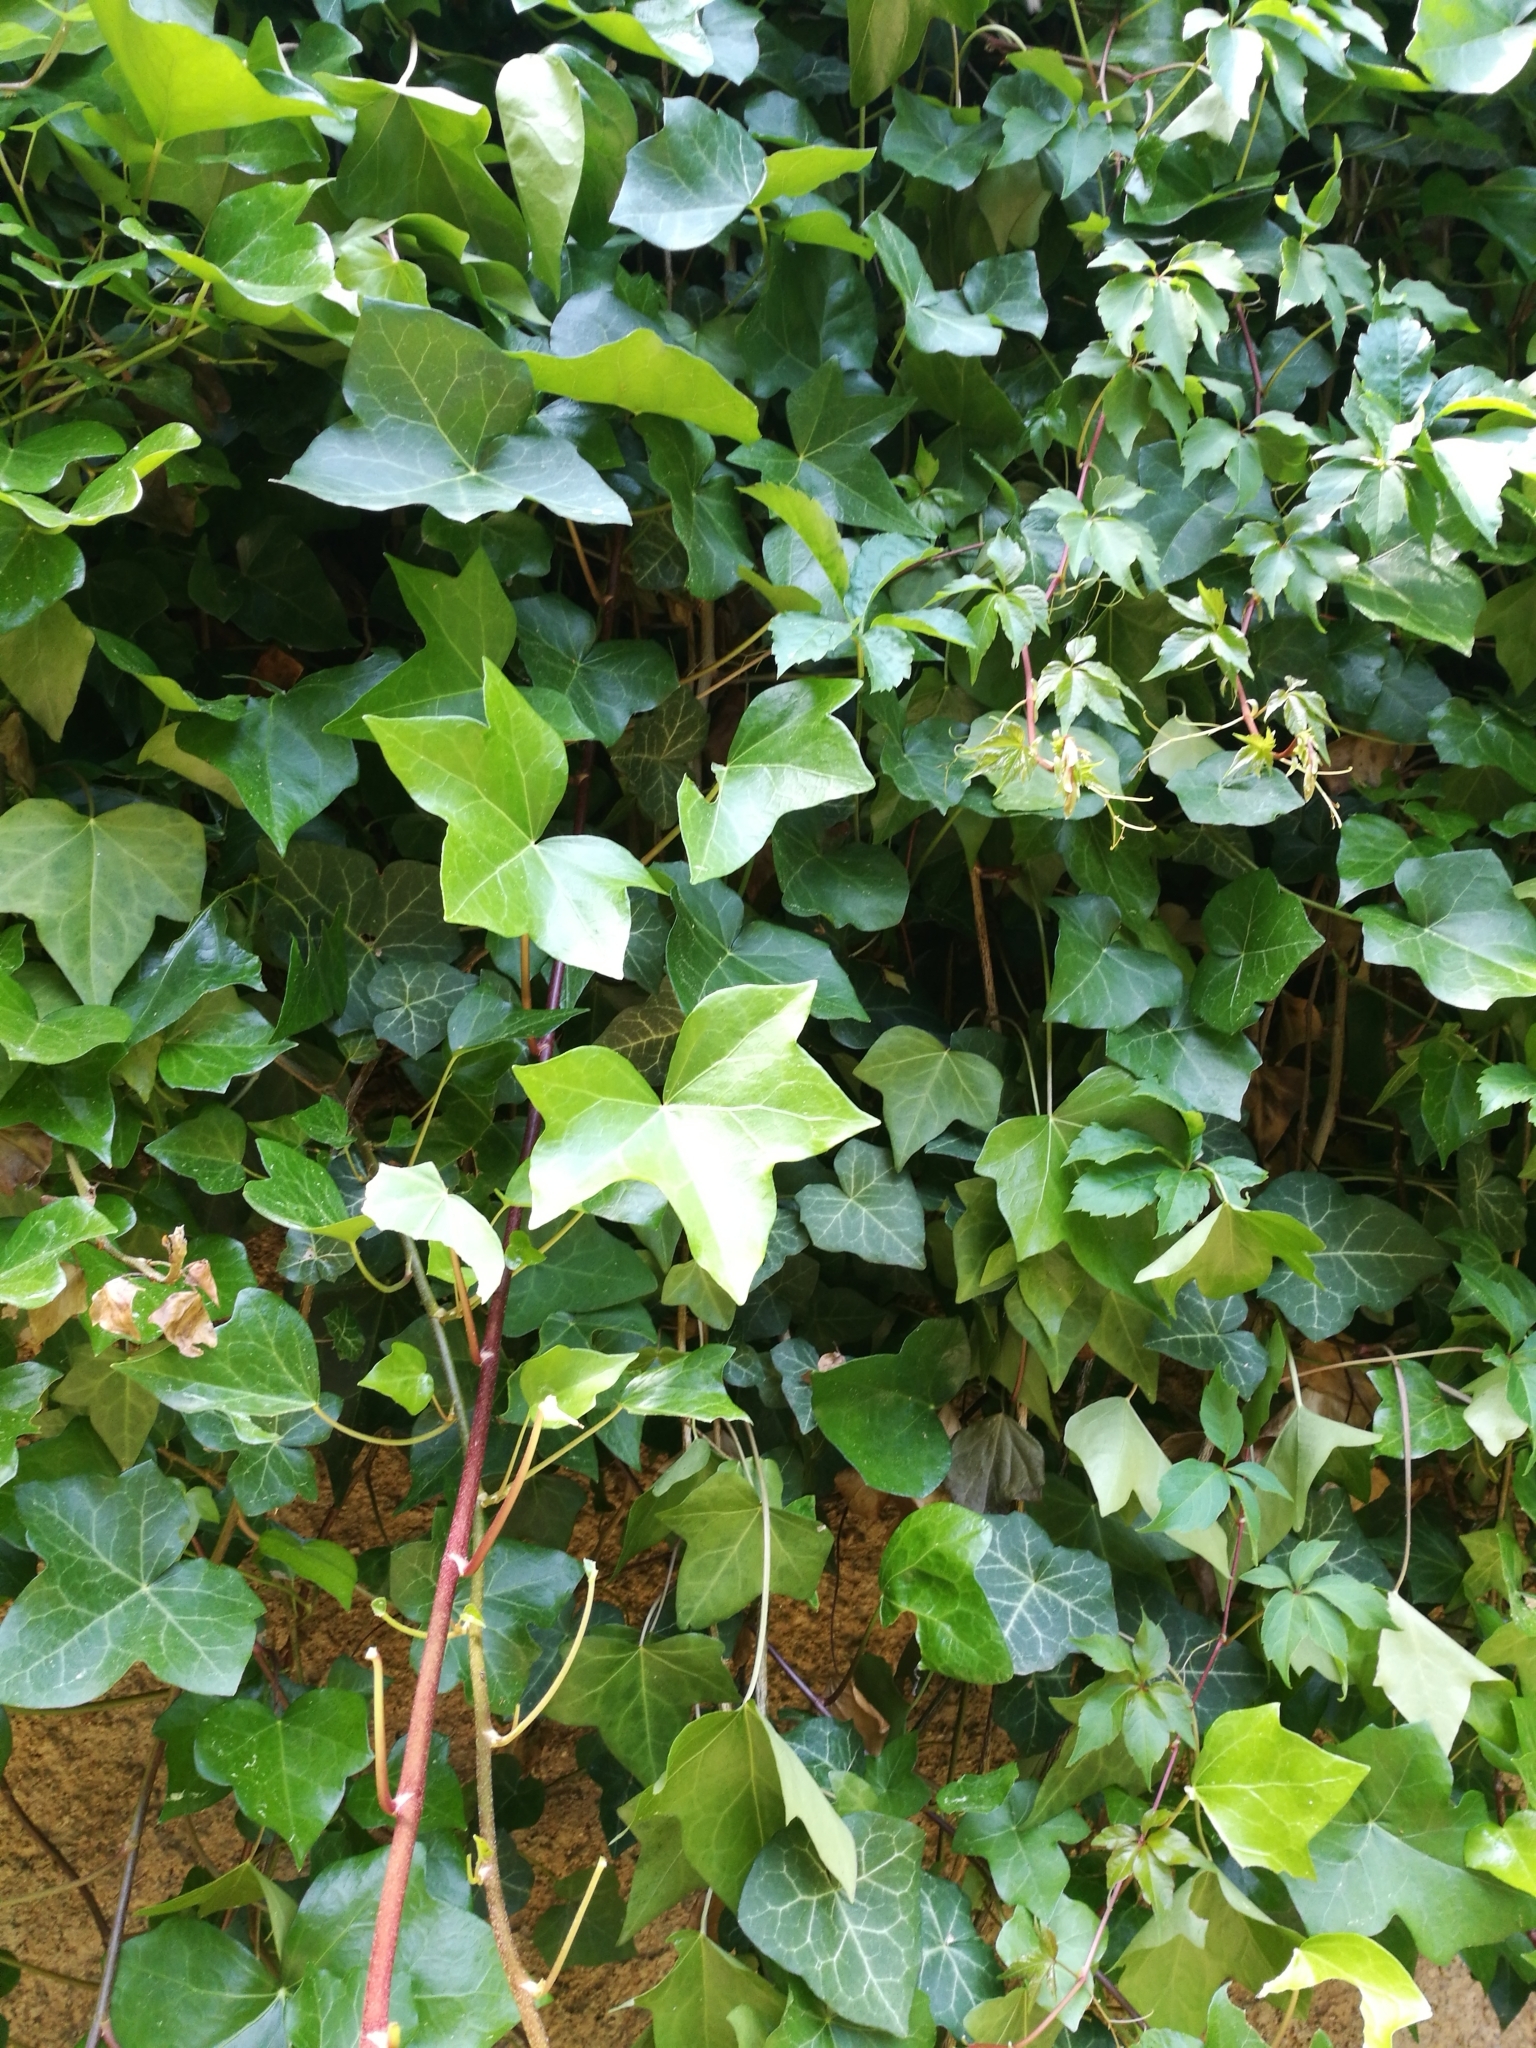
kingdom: Plantae
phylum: Tracheophyta
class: Magnoliopsida
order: Apiales
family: Araliaceae
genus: Hedera
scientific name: Hedera helix
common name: Ivy
